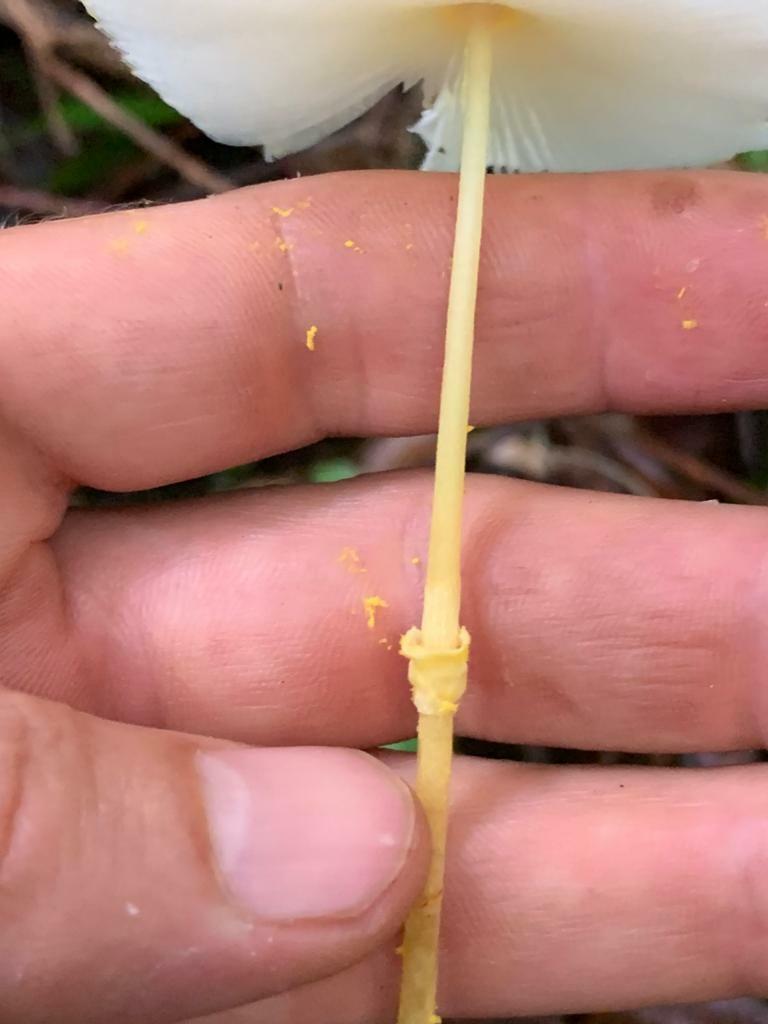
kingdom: Fungi
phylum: Basidiomycota
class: Agaricomycetes
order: Agaricales
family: Agaricaceae
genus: Leucocoprinus
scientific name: Leucocoprinus fragilissimus
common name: Fragile dapperling
